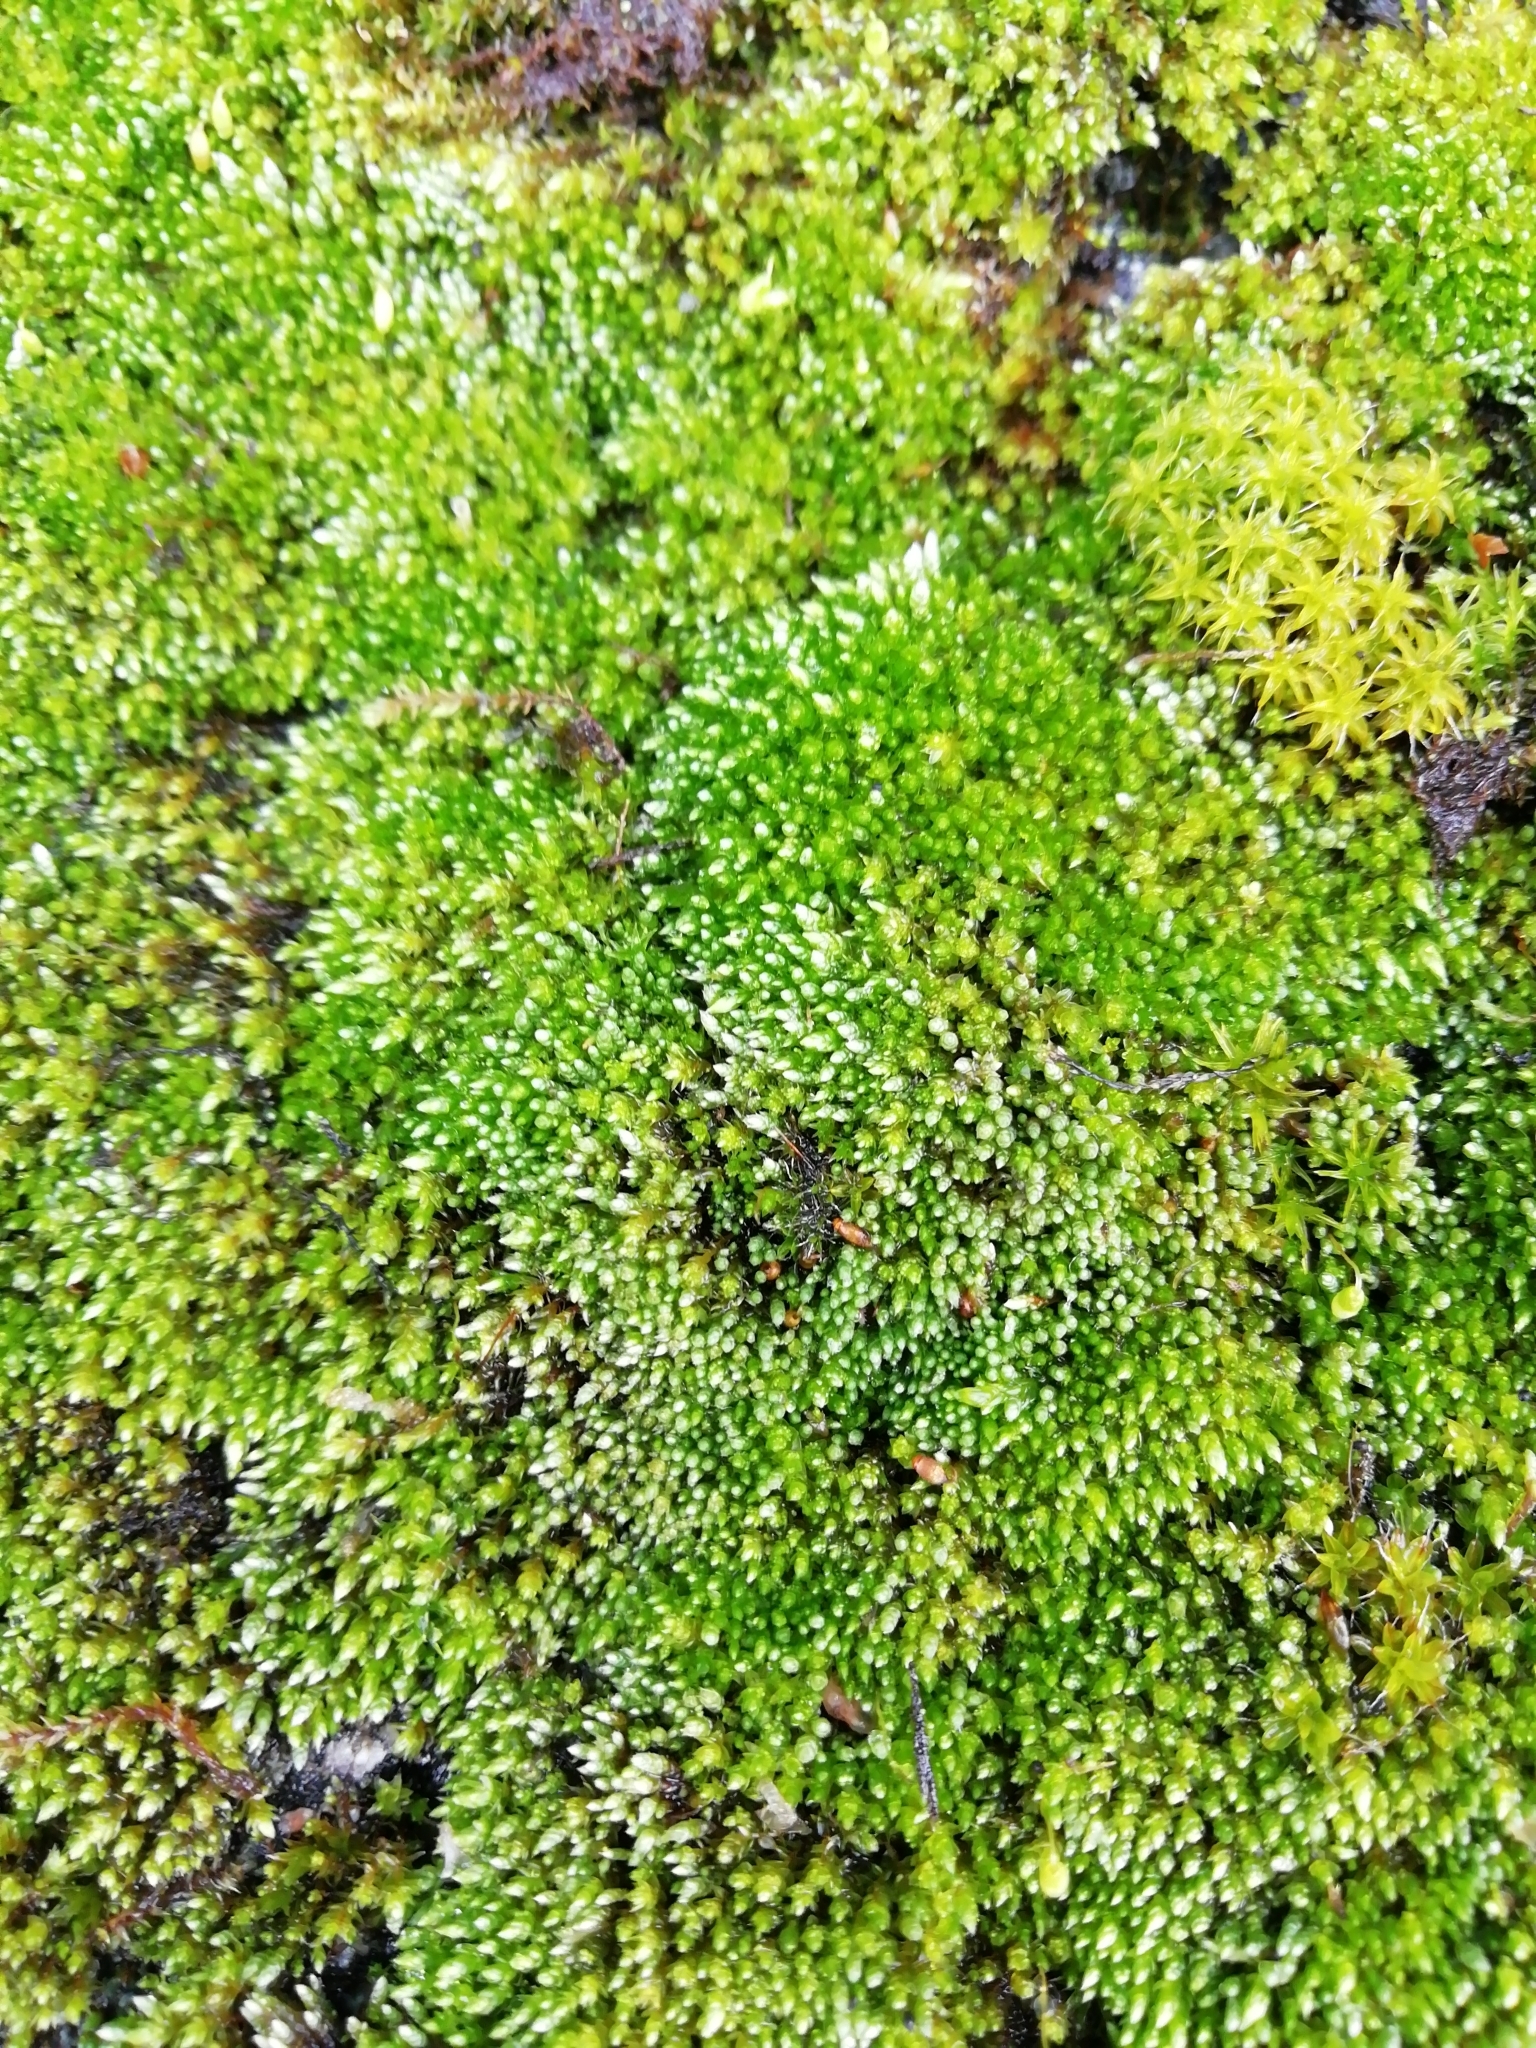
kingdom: Plantae
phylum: Bryophyta
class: Bryopsida
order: Bryales
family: Bryaceae
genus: Bryum
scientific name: Bryum argenteum
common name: Silver-moss
